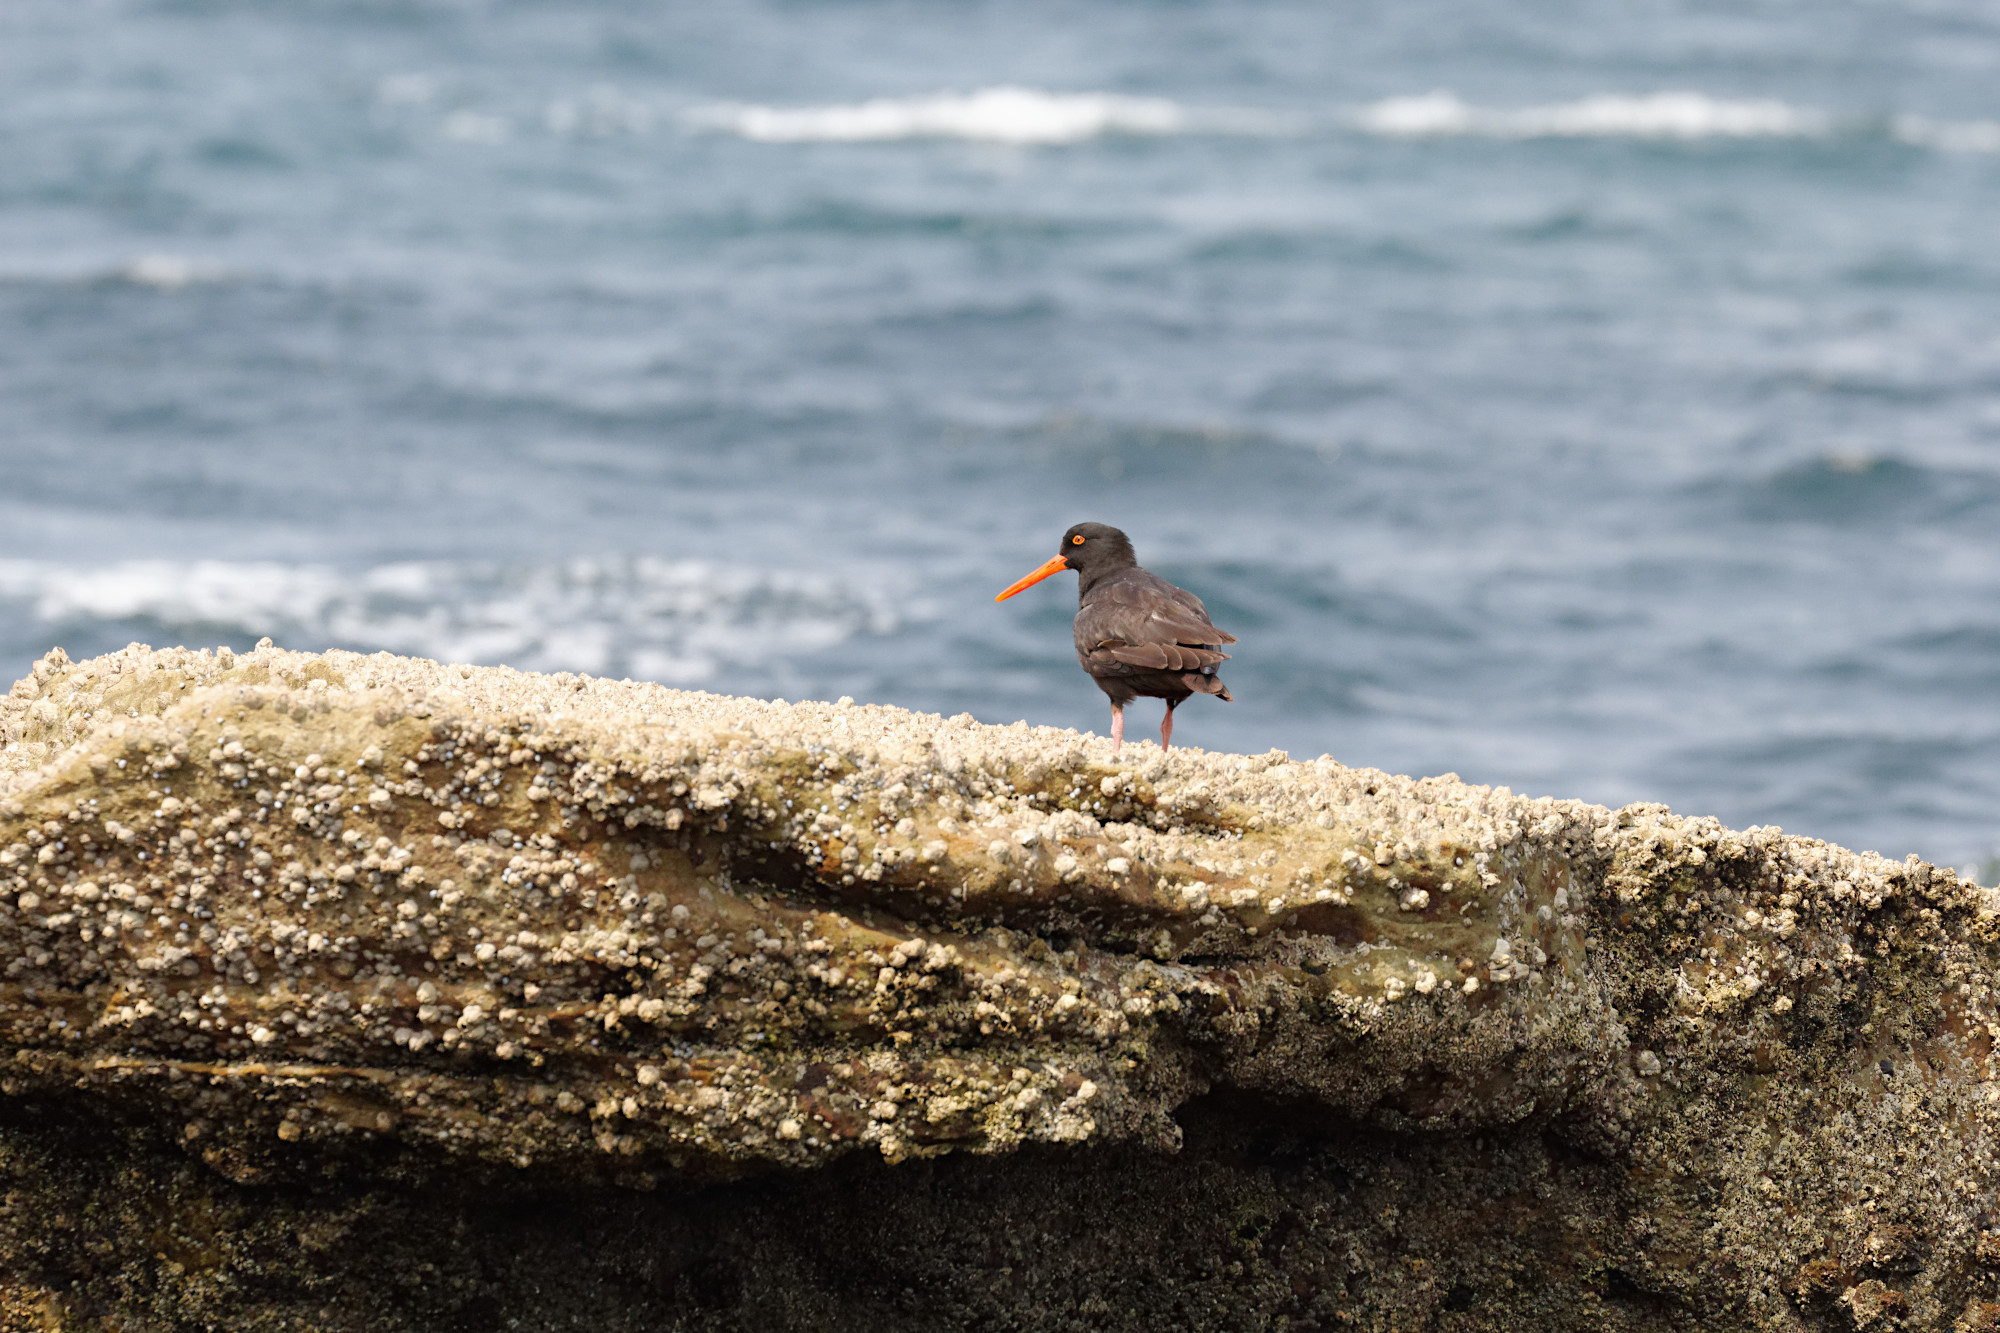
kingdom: Animalia
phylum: Chordata
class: Aves
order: Charadriiformes
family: Haematopodidae
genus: Haematopus
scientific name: Haematopus fuliginosus
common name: Sooty oystercatcher
